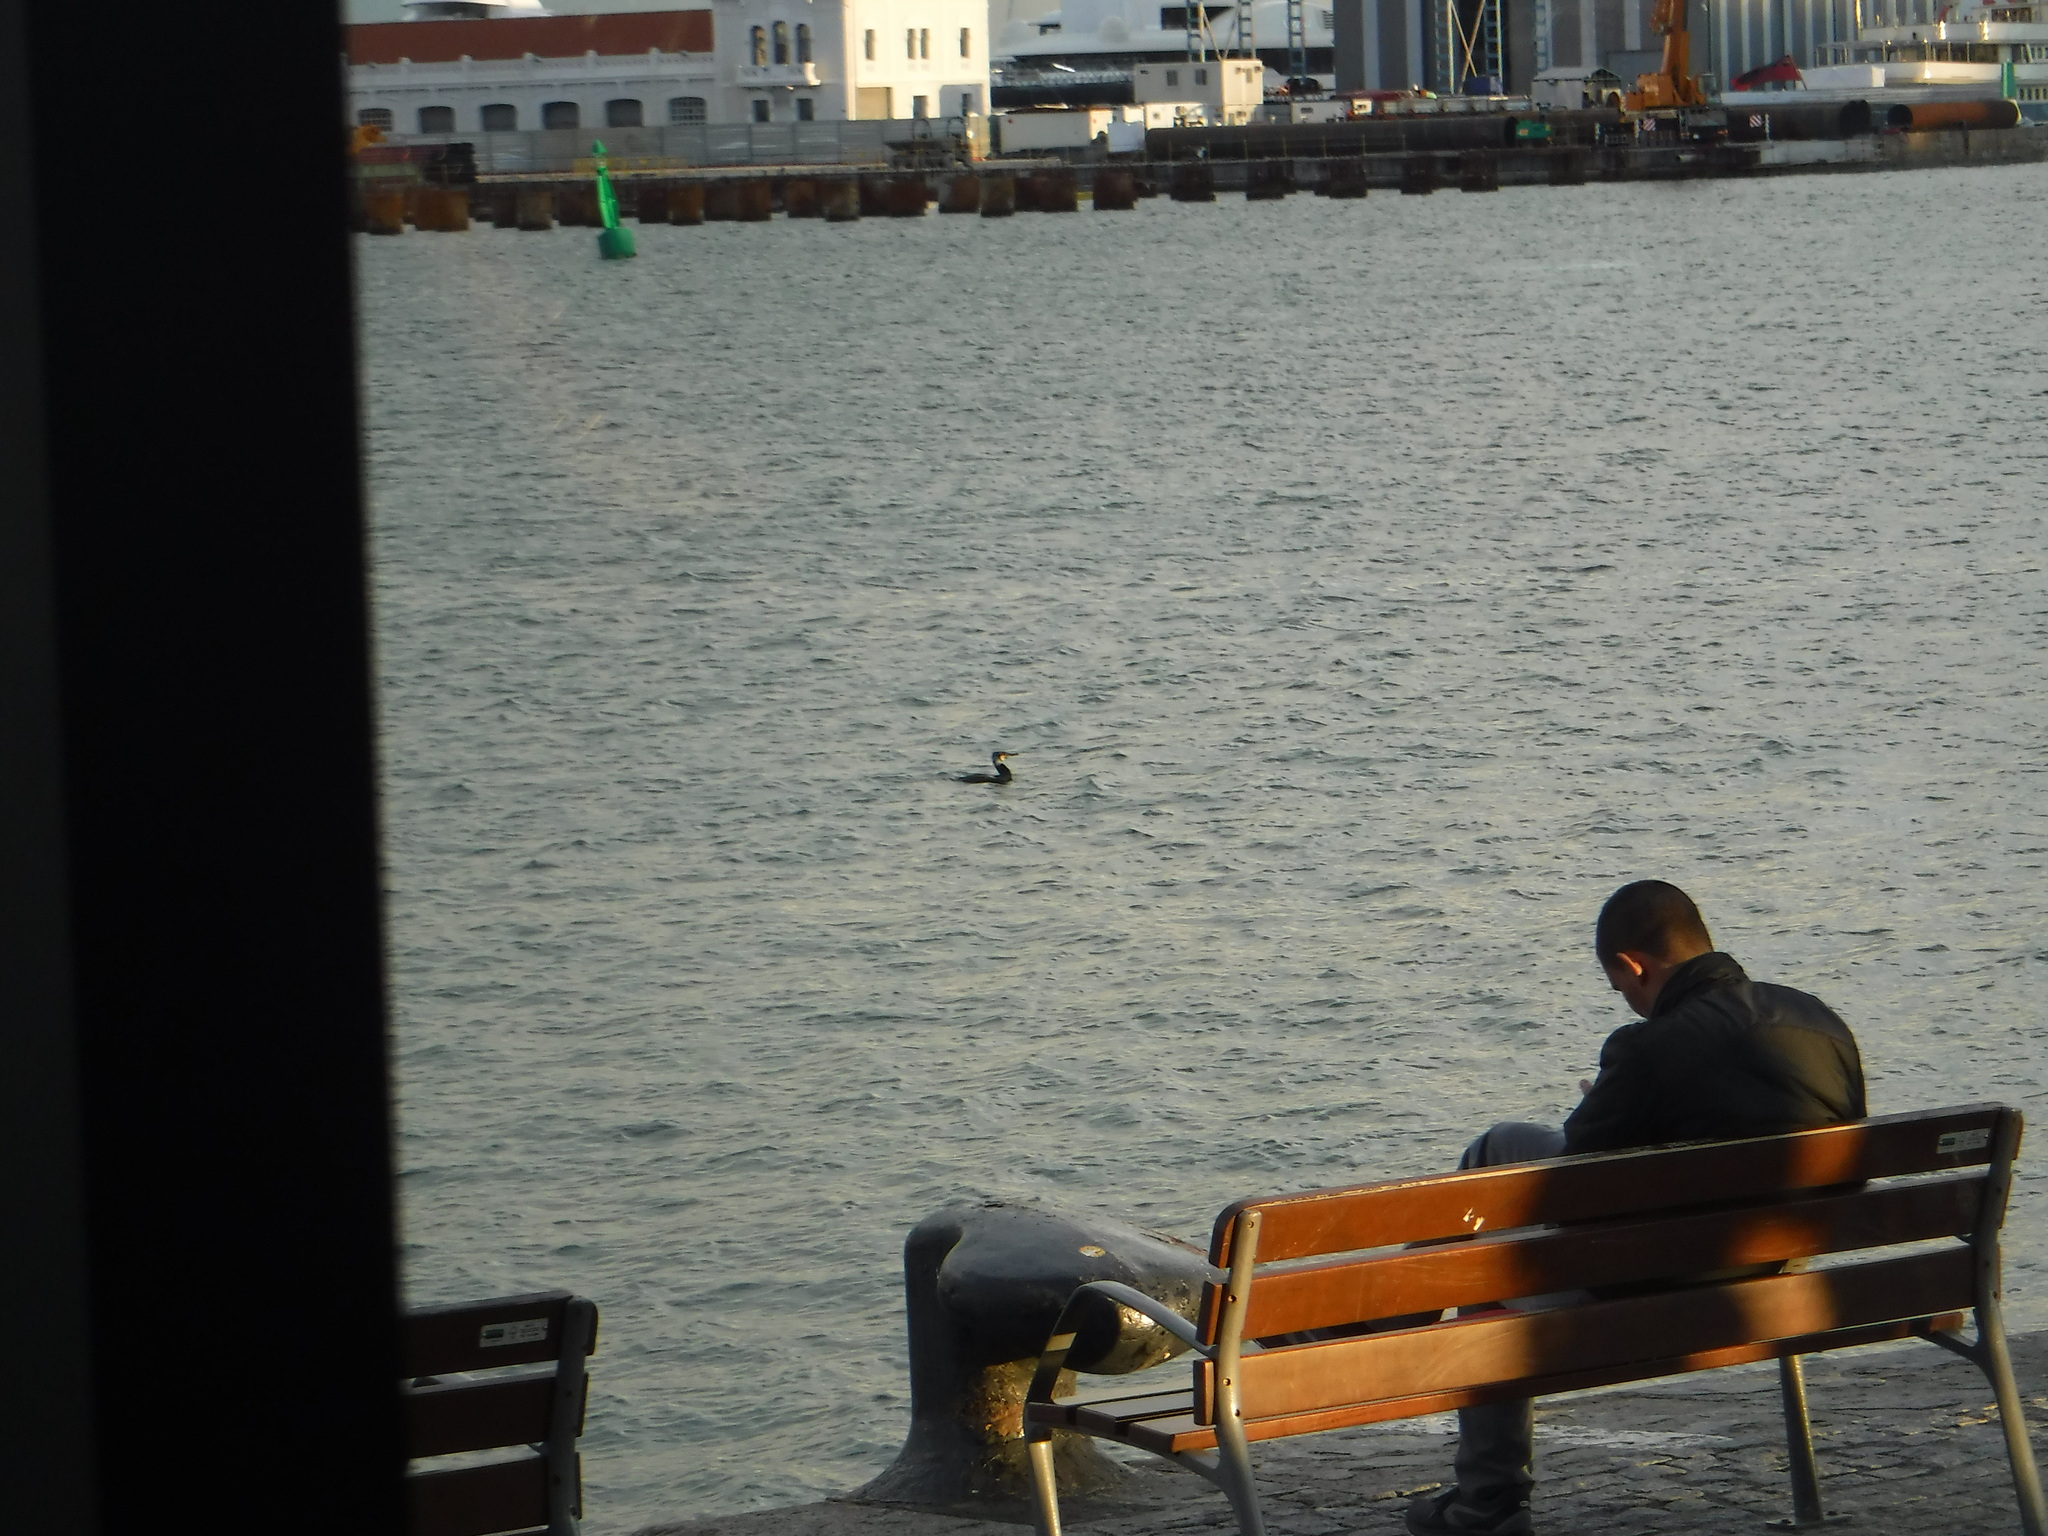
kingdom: Animalia
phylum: Chordata
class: Aves
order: Suliformes
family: Phalacrocoracidae
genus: Phalacrocorax
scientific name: Phalacrocorax carbo
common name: Great cormorant
